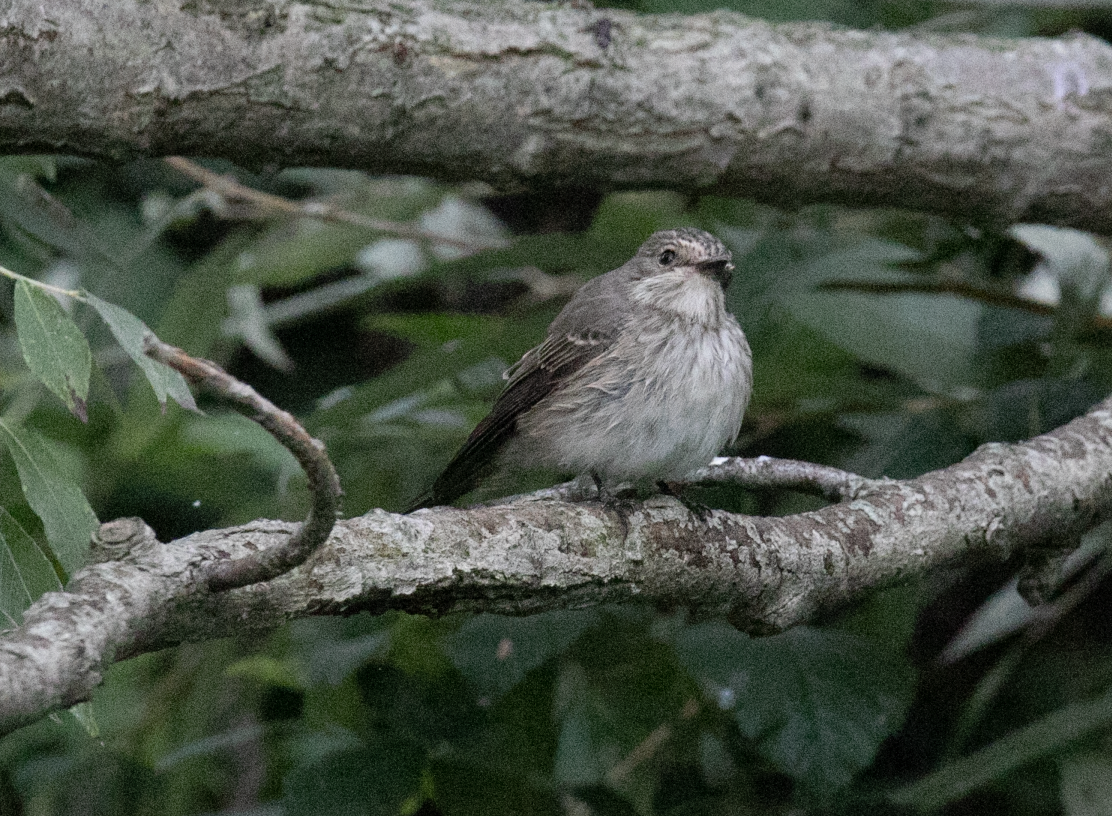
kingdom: Animalia
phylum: Chordata
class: Aves
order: Passeriformes
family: Muscicapidae
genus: Muscicapa
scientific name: Muscicapa striata
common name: Spotted flycatcher
